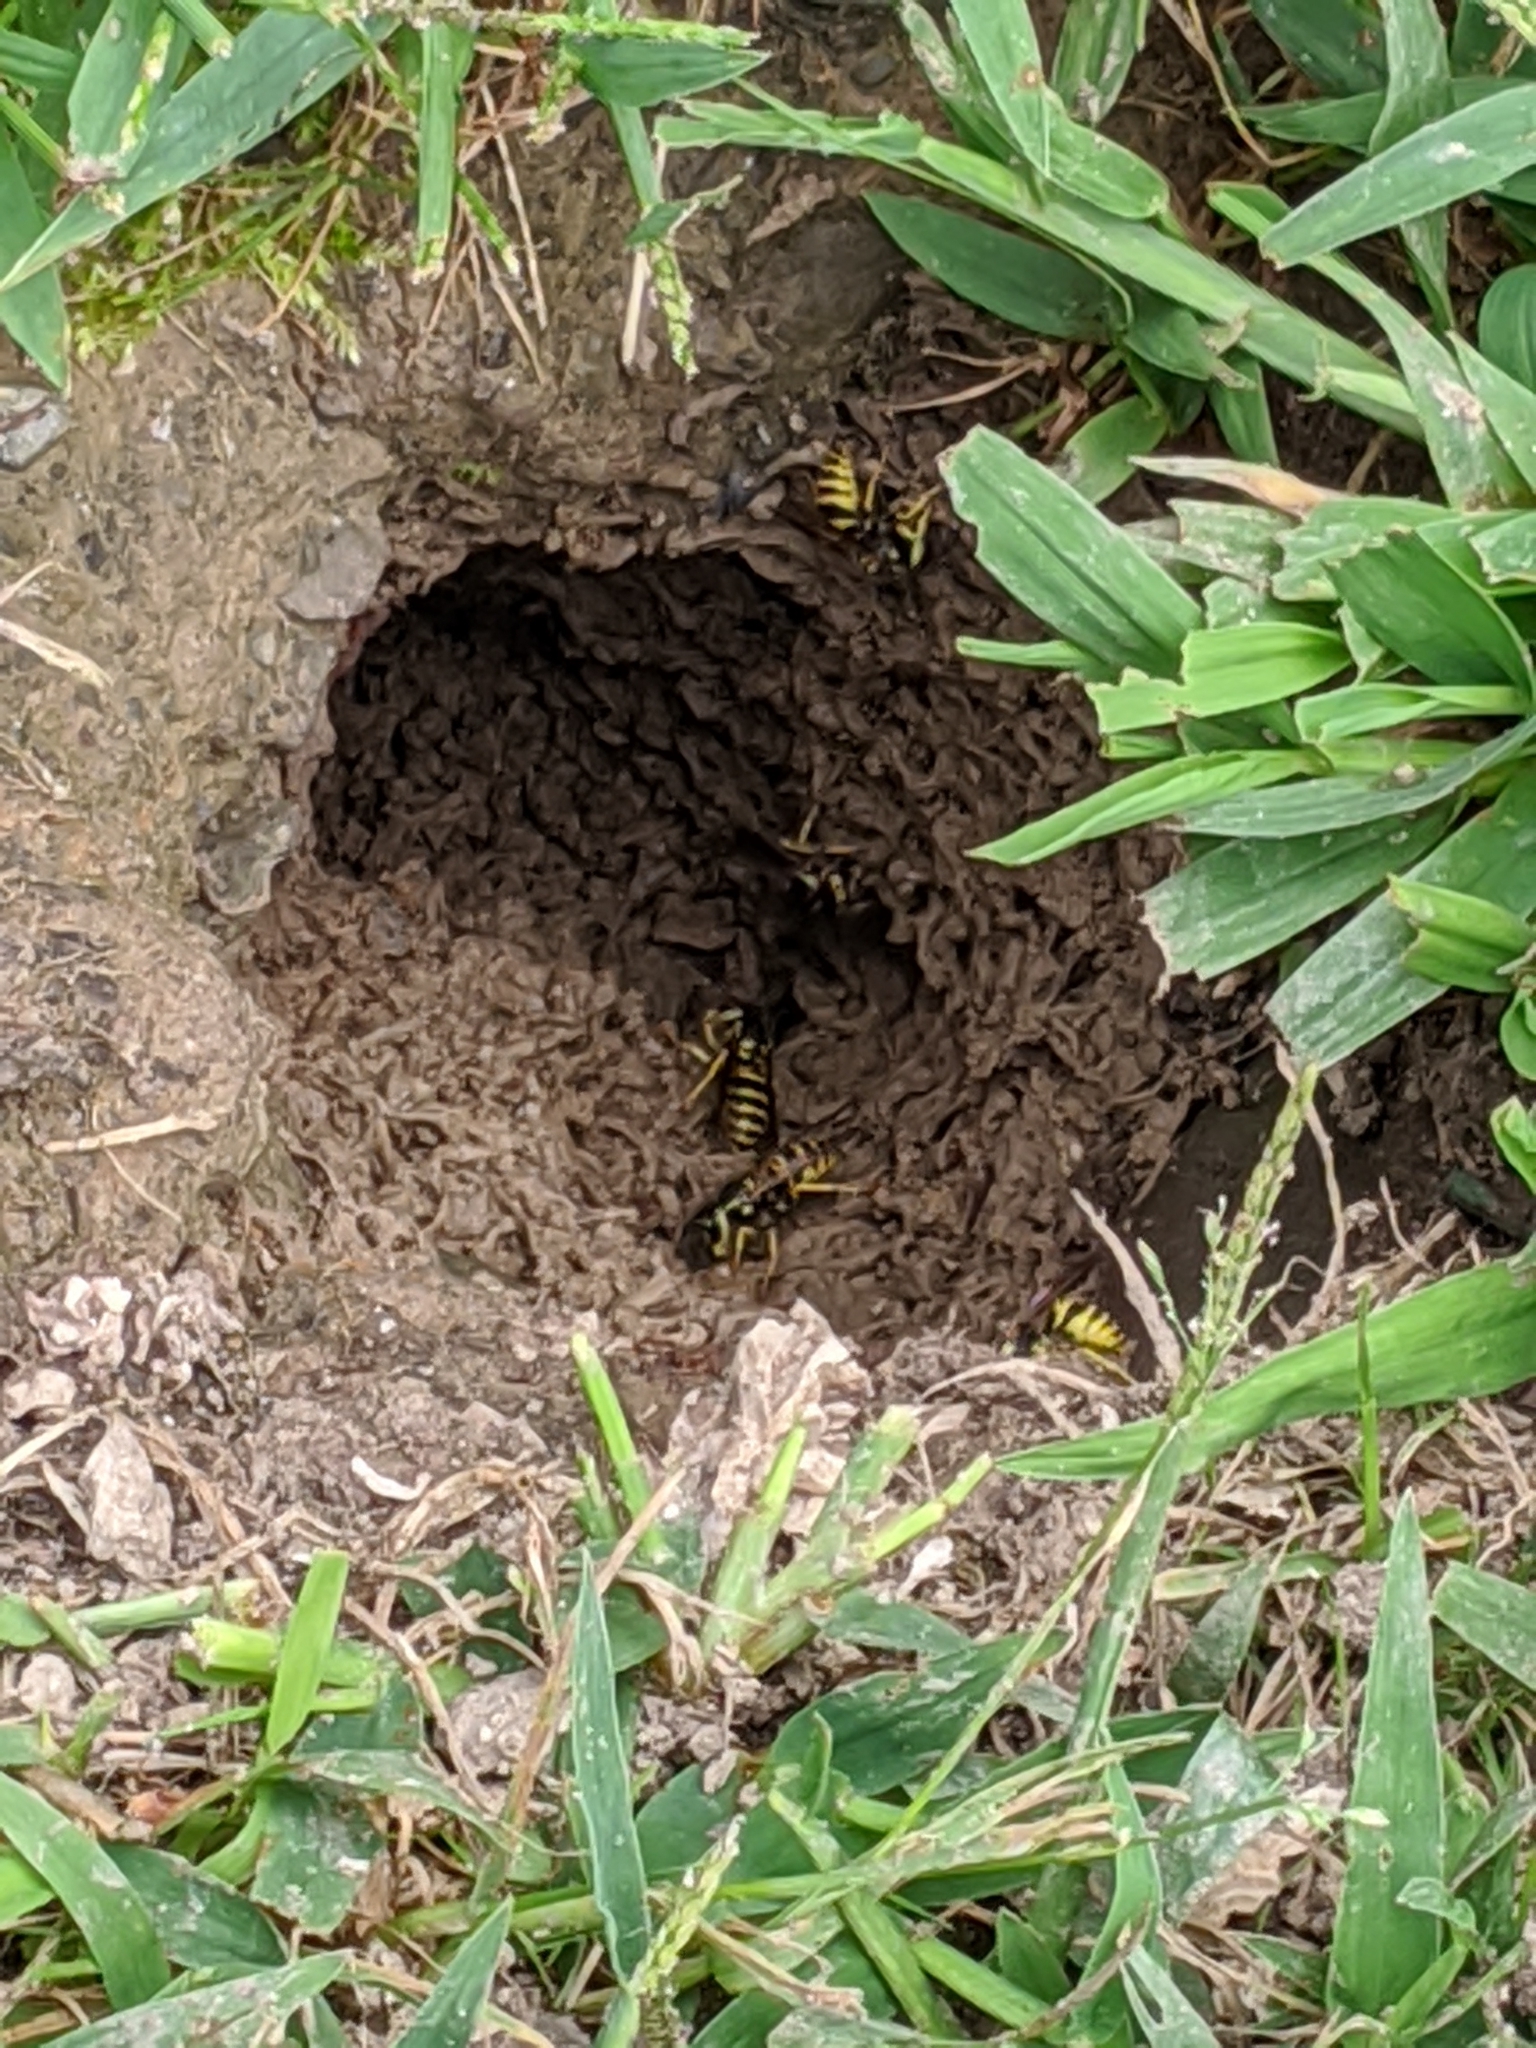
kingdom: Animalia
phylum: Arthropoda
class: Insecta
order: Hymenoptera
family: Vespidae
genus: Vespula
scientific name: Vespula maculifrons
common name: Eastern yellowjacket
